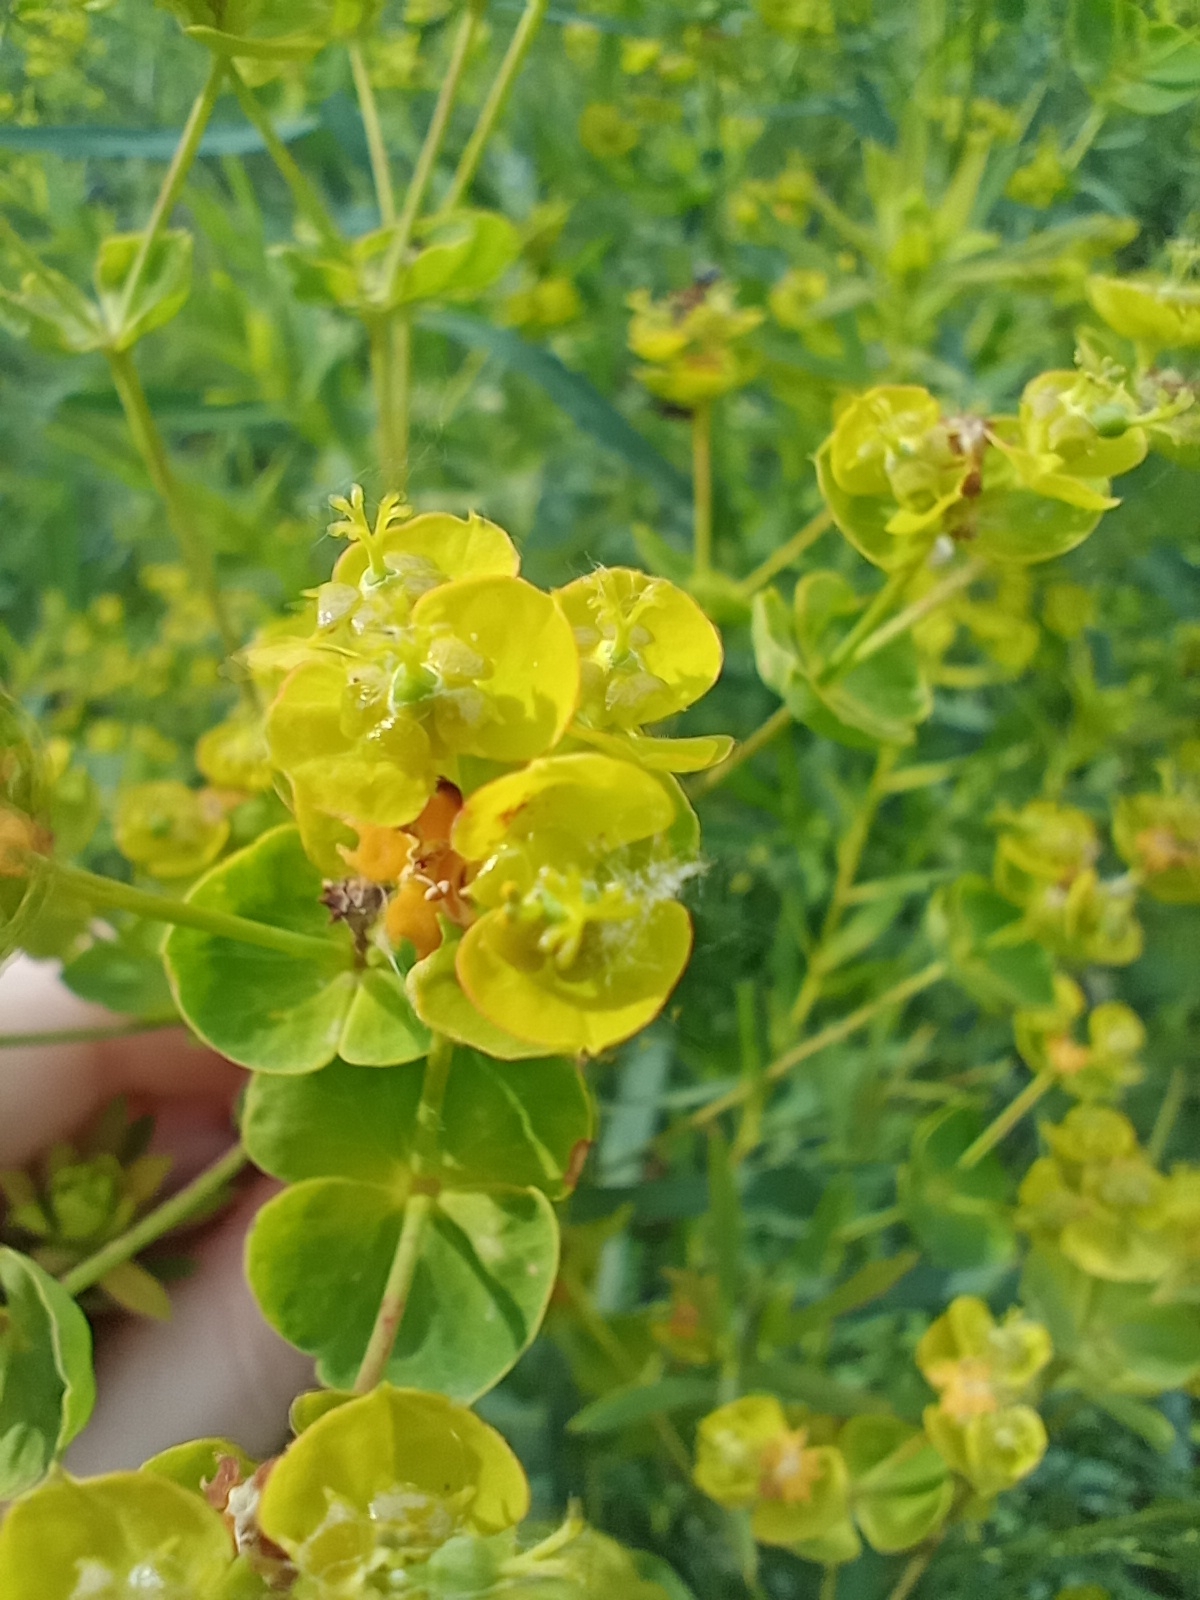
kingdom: Plantae
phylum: Tracheophyta
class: Magnoliopsida
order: Malpighiales
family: Euphorbiaceae
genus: Euphorbia
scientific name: Euphorbia virgata
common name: Leafy spurge
